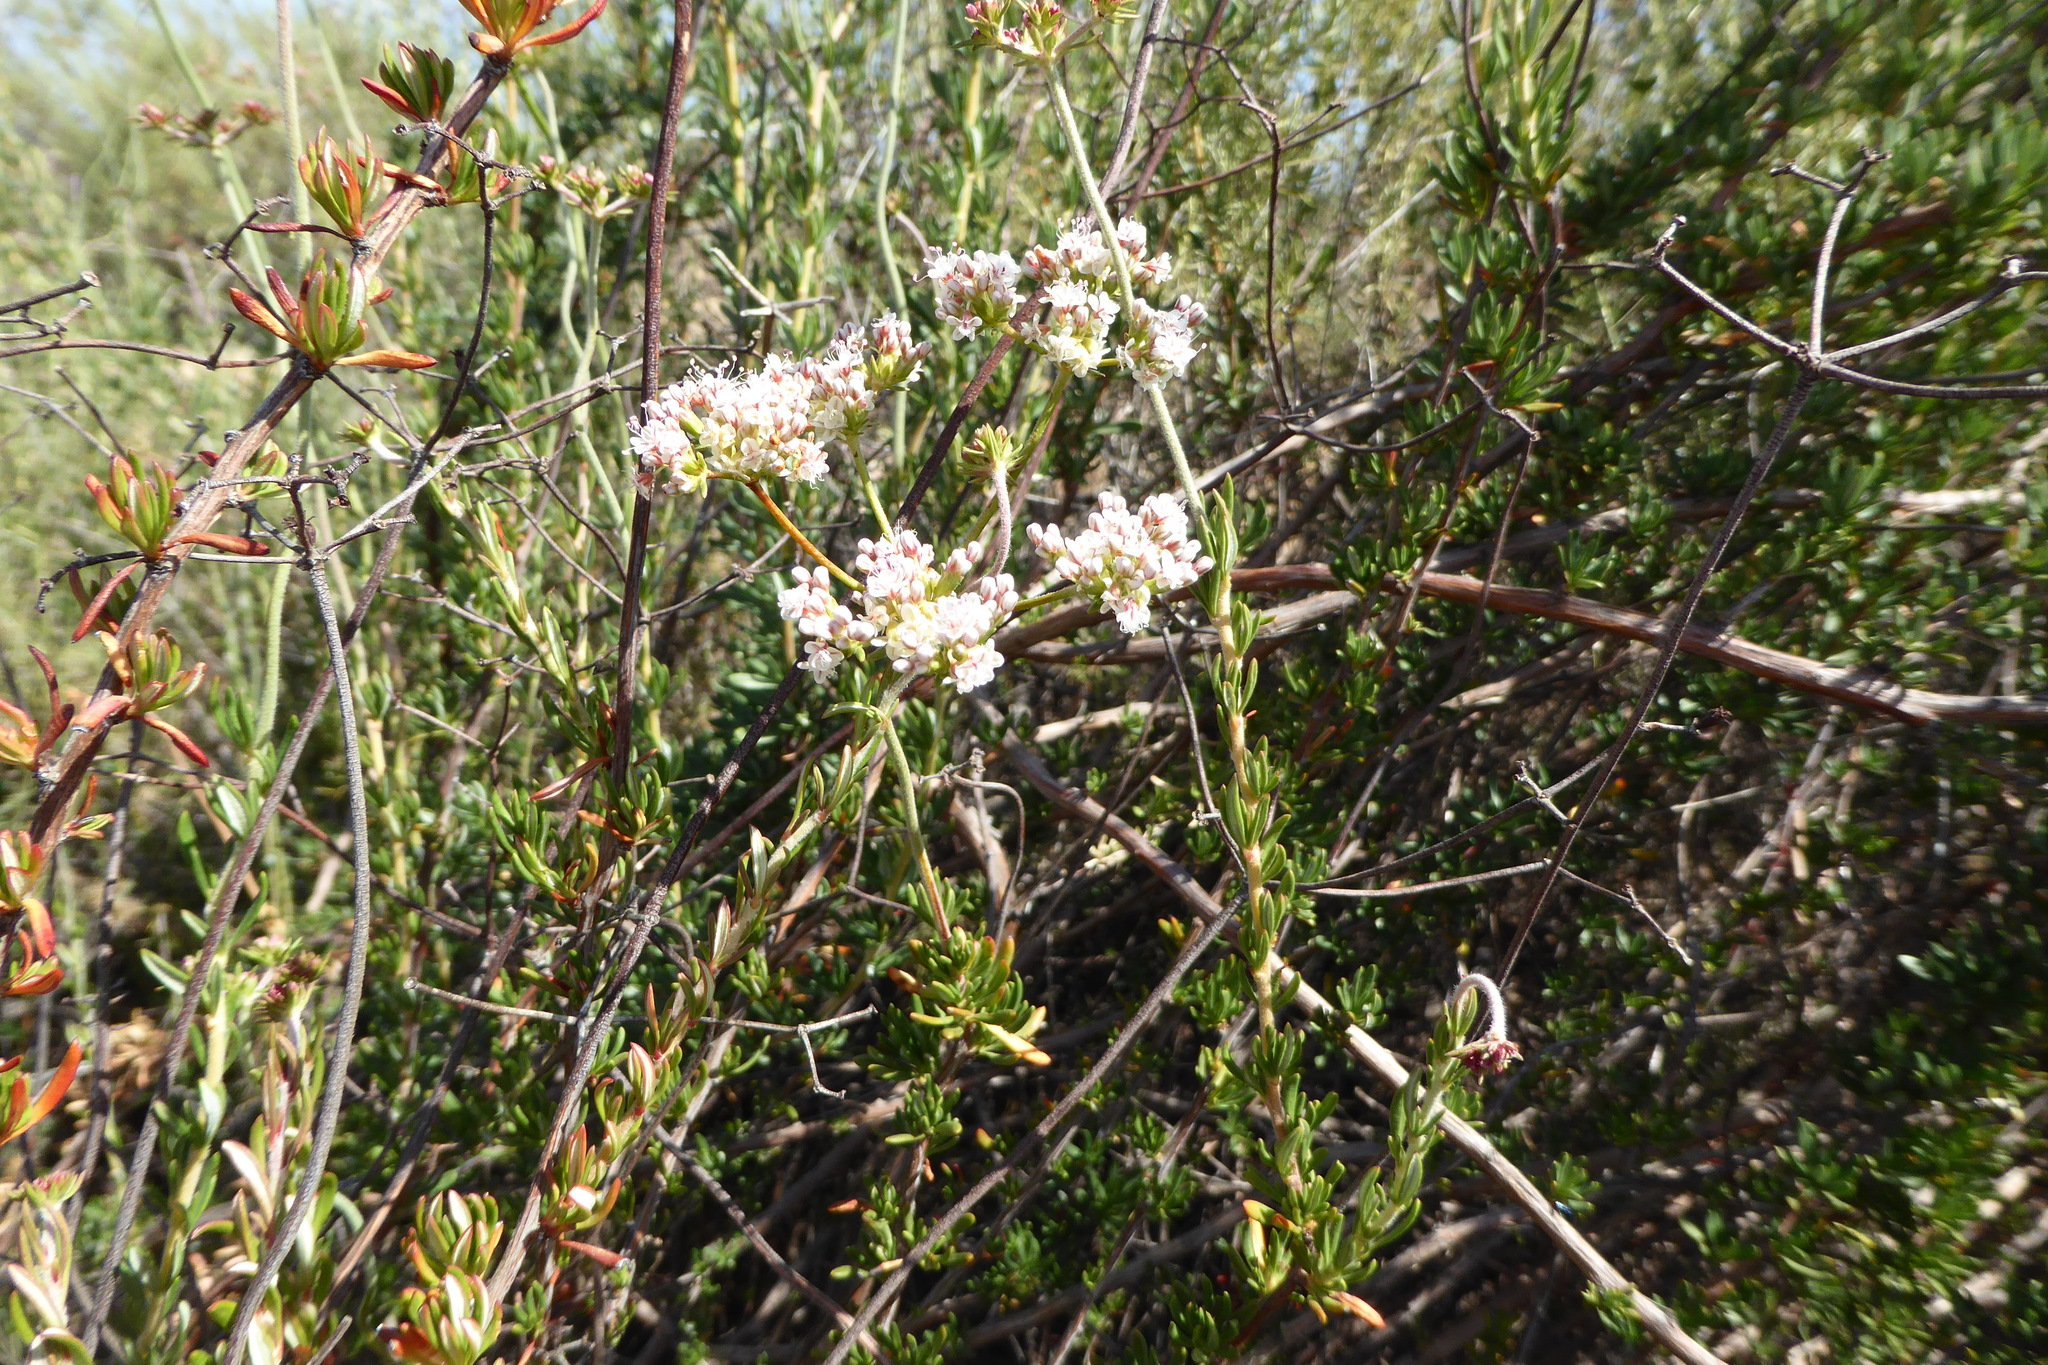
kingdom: Plantae
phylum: Tracheophyta
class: Magnoliopsida
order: Caryophyllales
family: Polygonaceae
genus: Eriogonum
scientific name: Eriogonum fasciculatum
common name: California wild buckwheat
